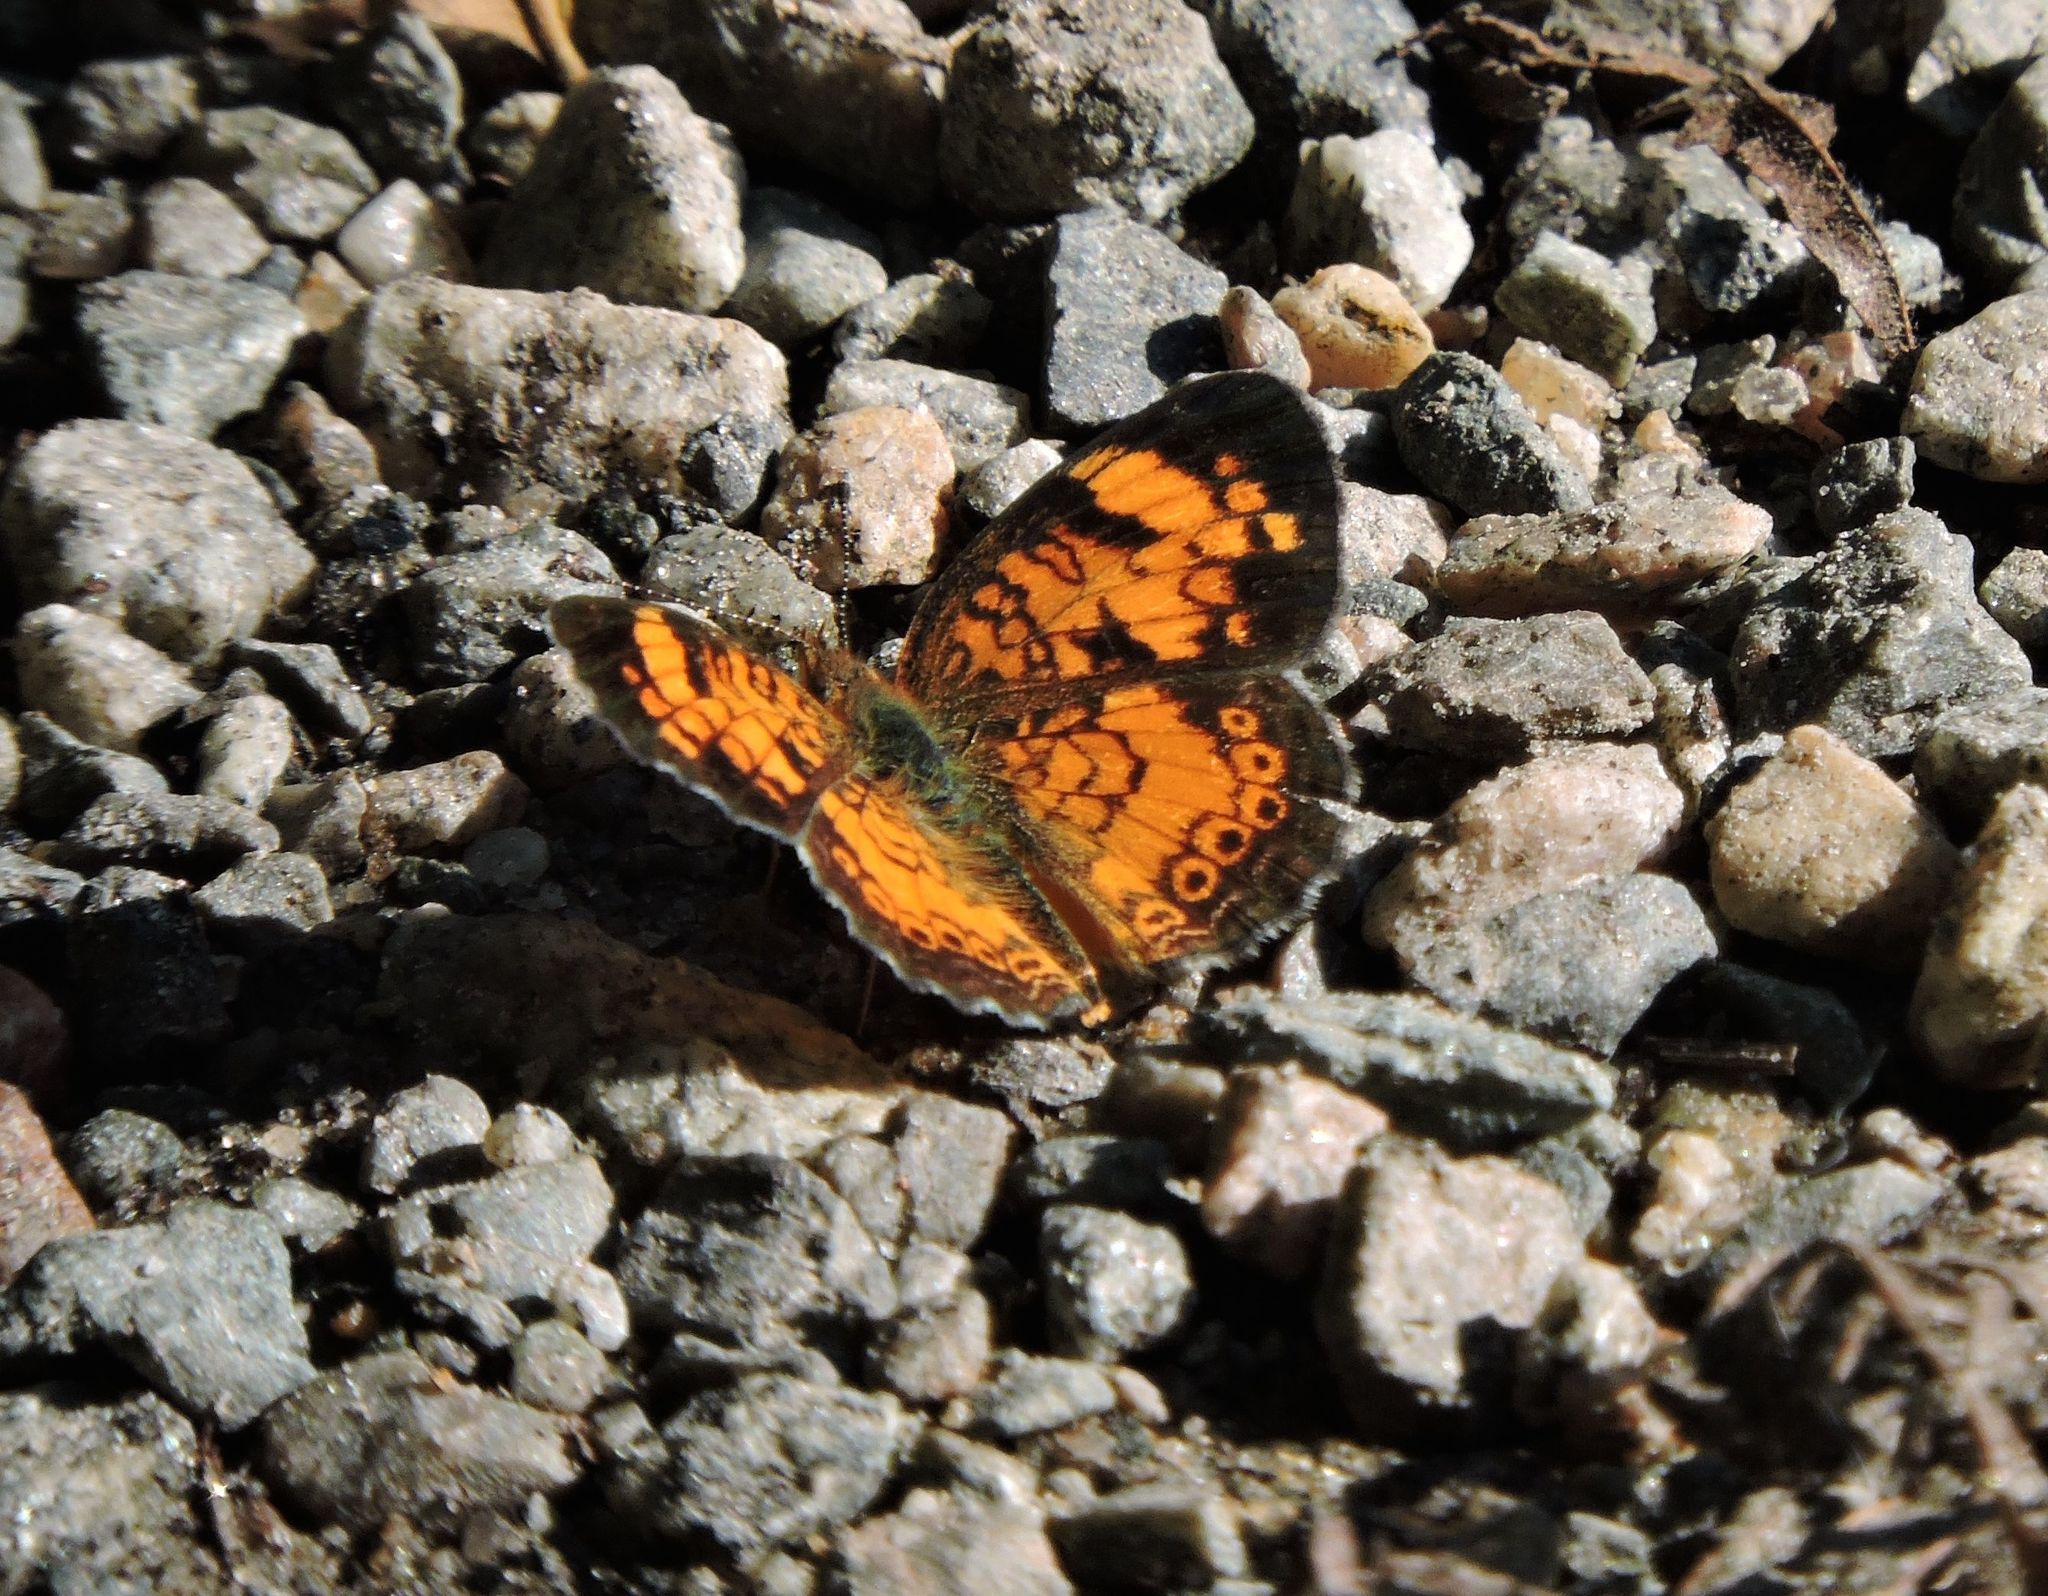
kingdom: Animalia
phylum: Arthropoda
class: Insecta
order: Lepidoptera
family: Nymphalidae
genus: Phyciodes
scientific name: Phyciodes tharos
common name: Pearl crescent
